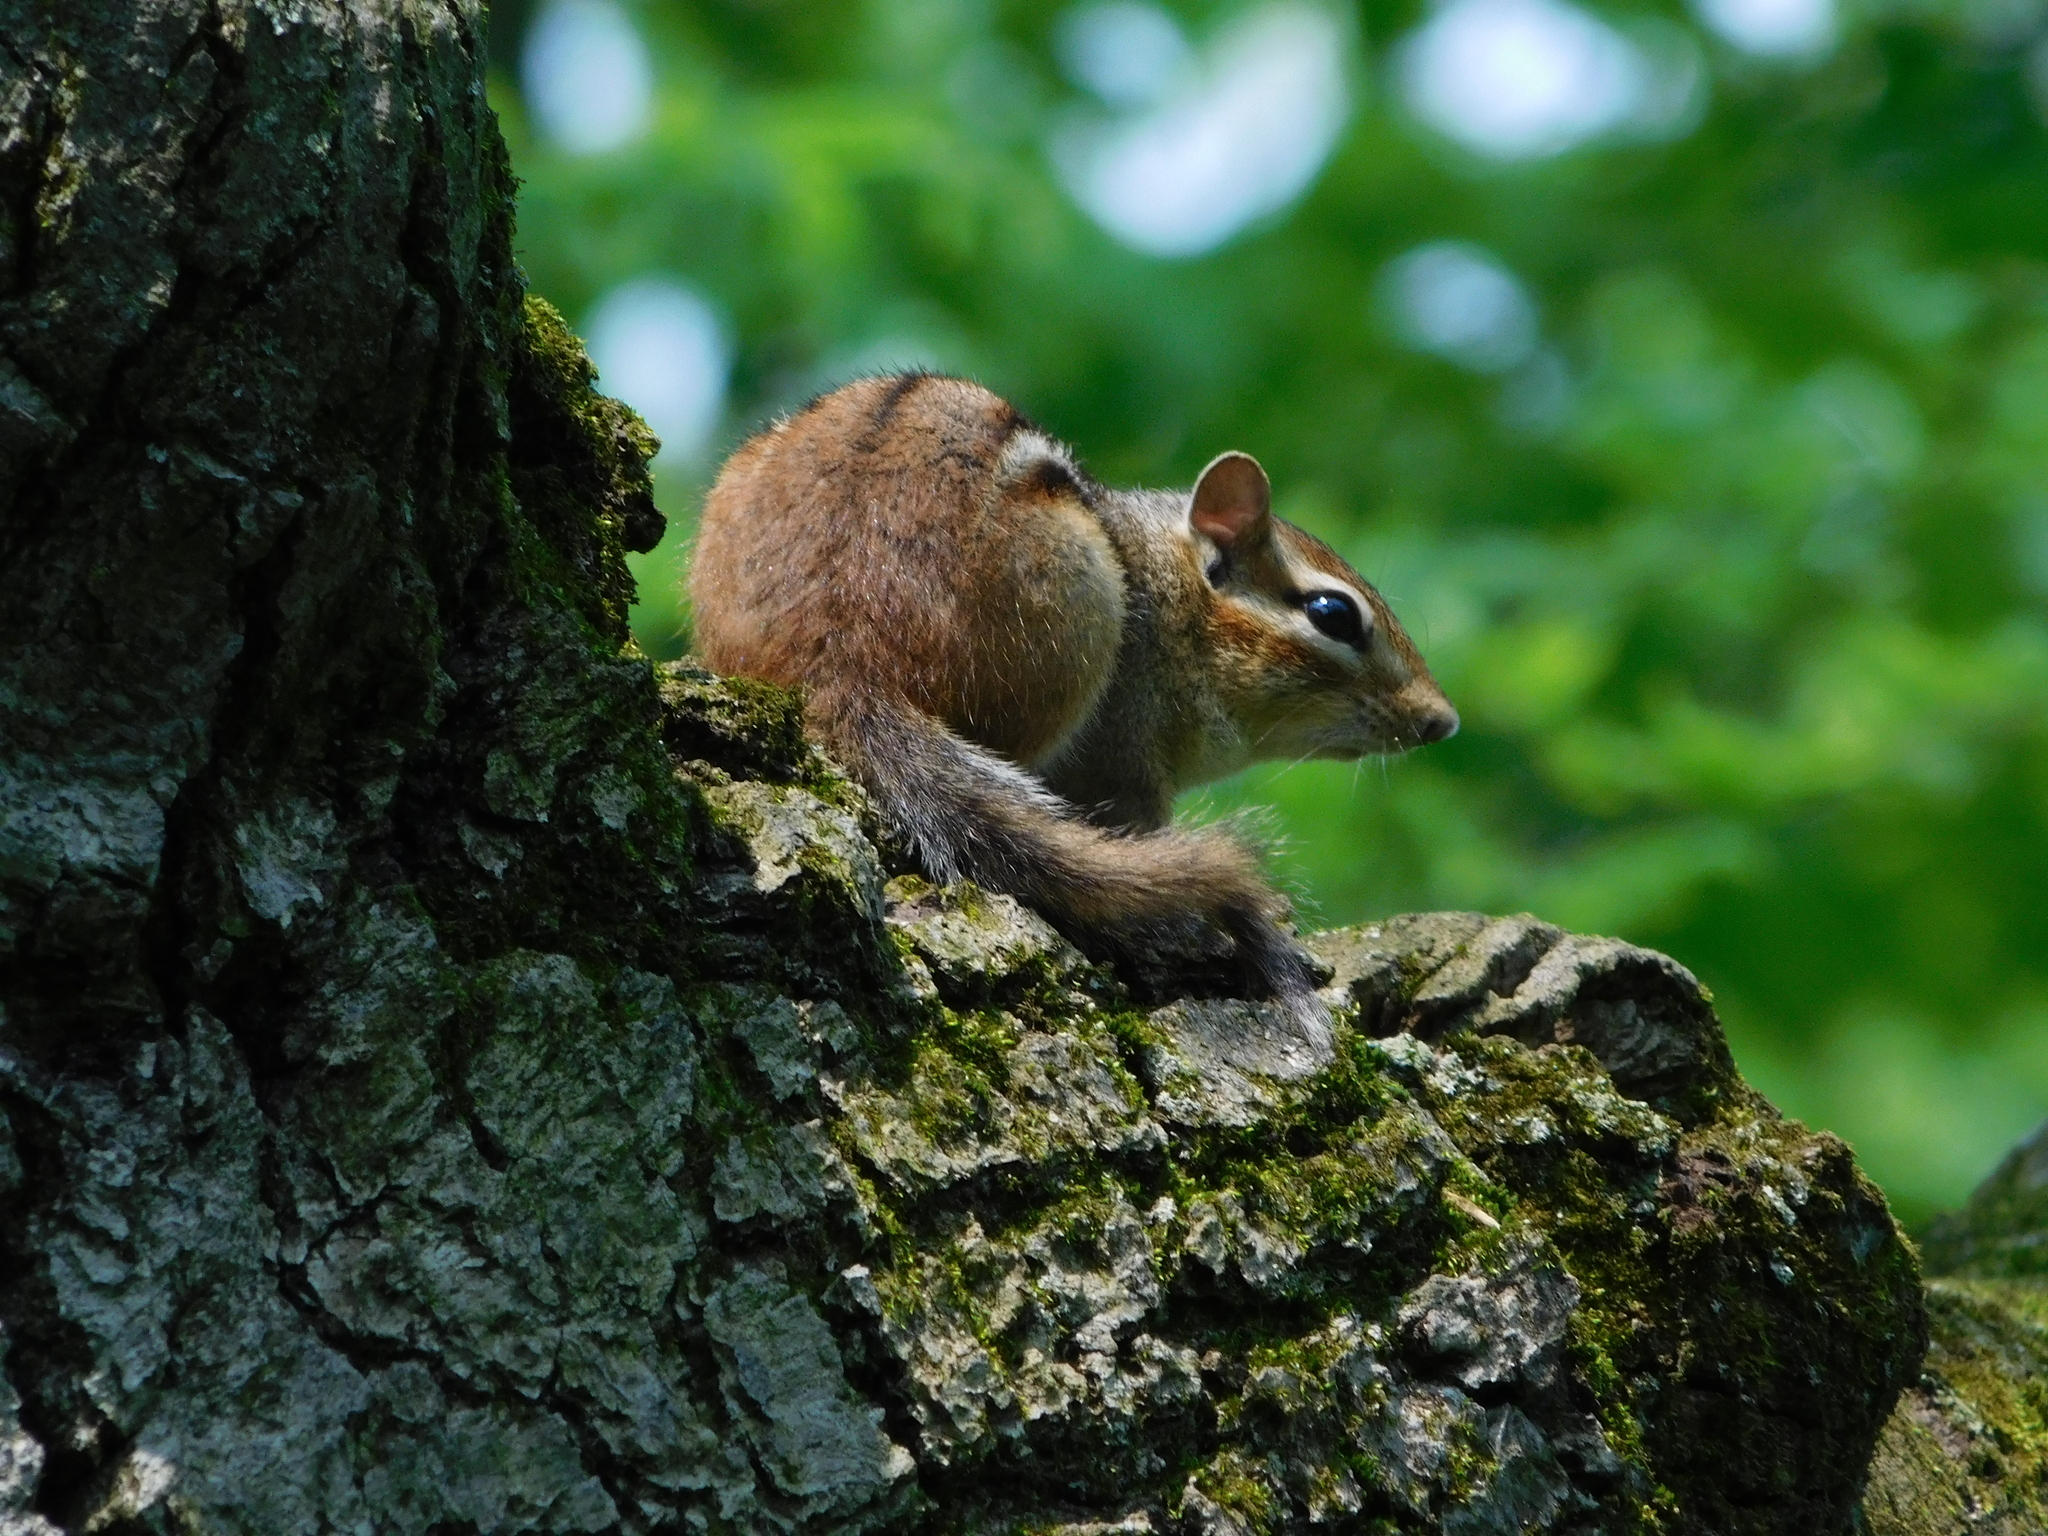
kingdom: Animalia
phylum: Chordata
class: Mammalia
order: Rodentia
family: Sciuridae
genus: Tamias
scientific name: Tamias striatus
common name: Eastern chipmunk
